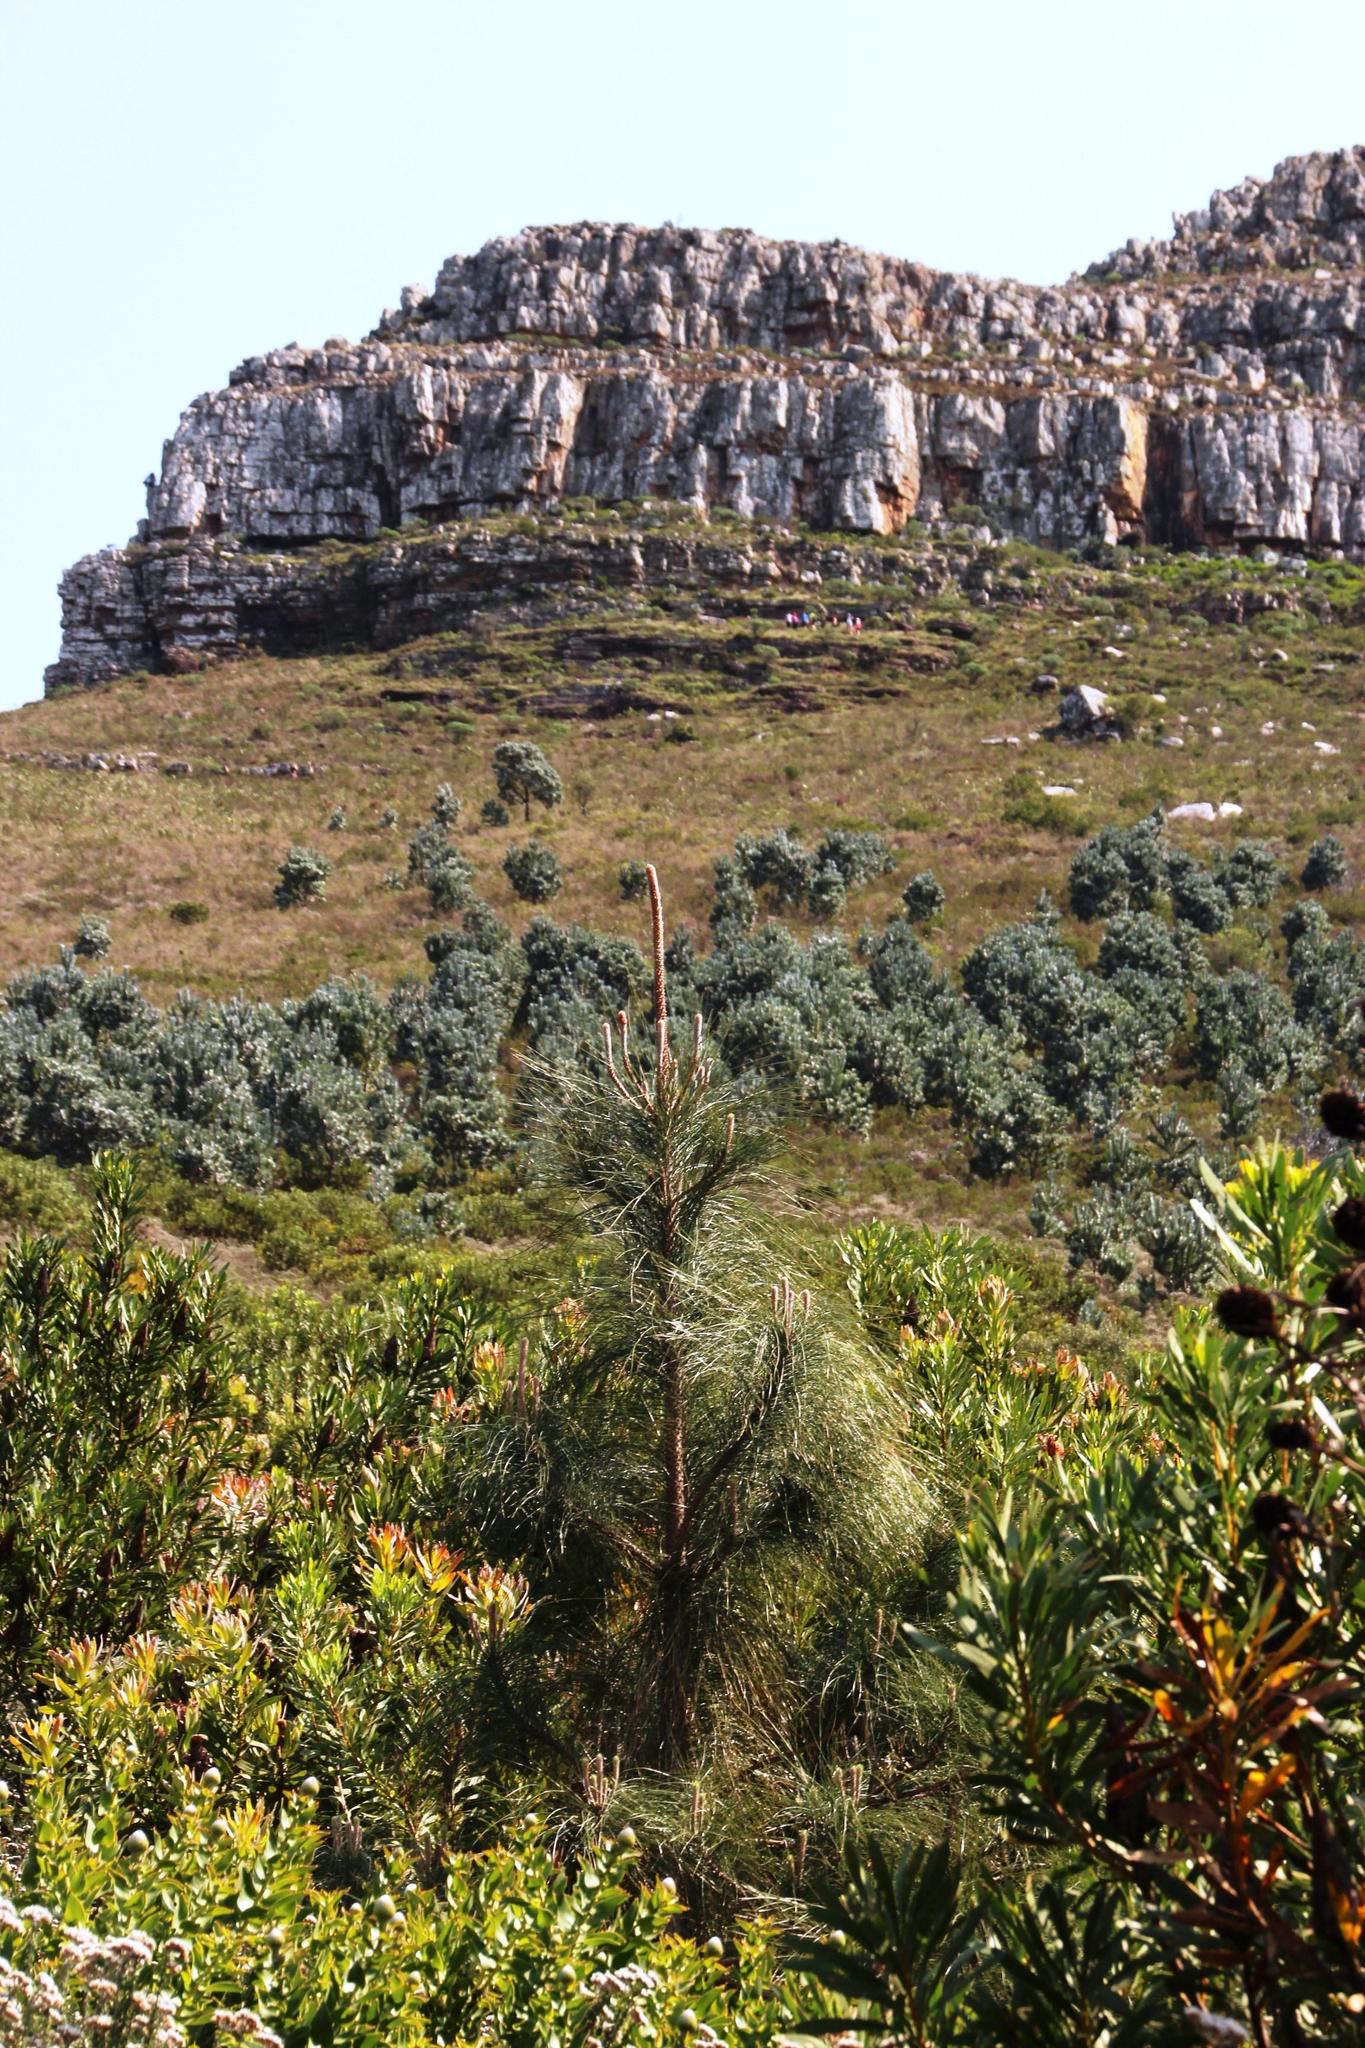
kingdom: Plantae
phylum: Tracheophyta
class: Pinopsida
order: Pinales
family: Pinaceae
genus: Pinus
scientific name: Pinus canariensis
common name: Canary islands pine
